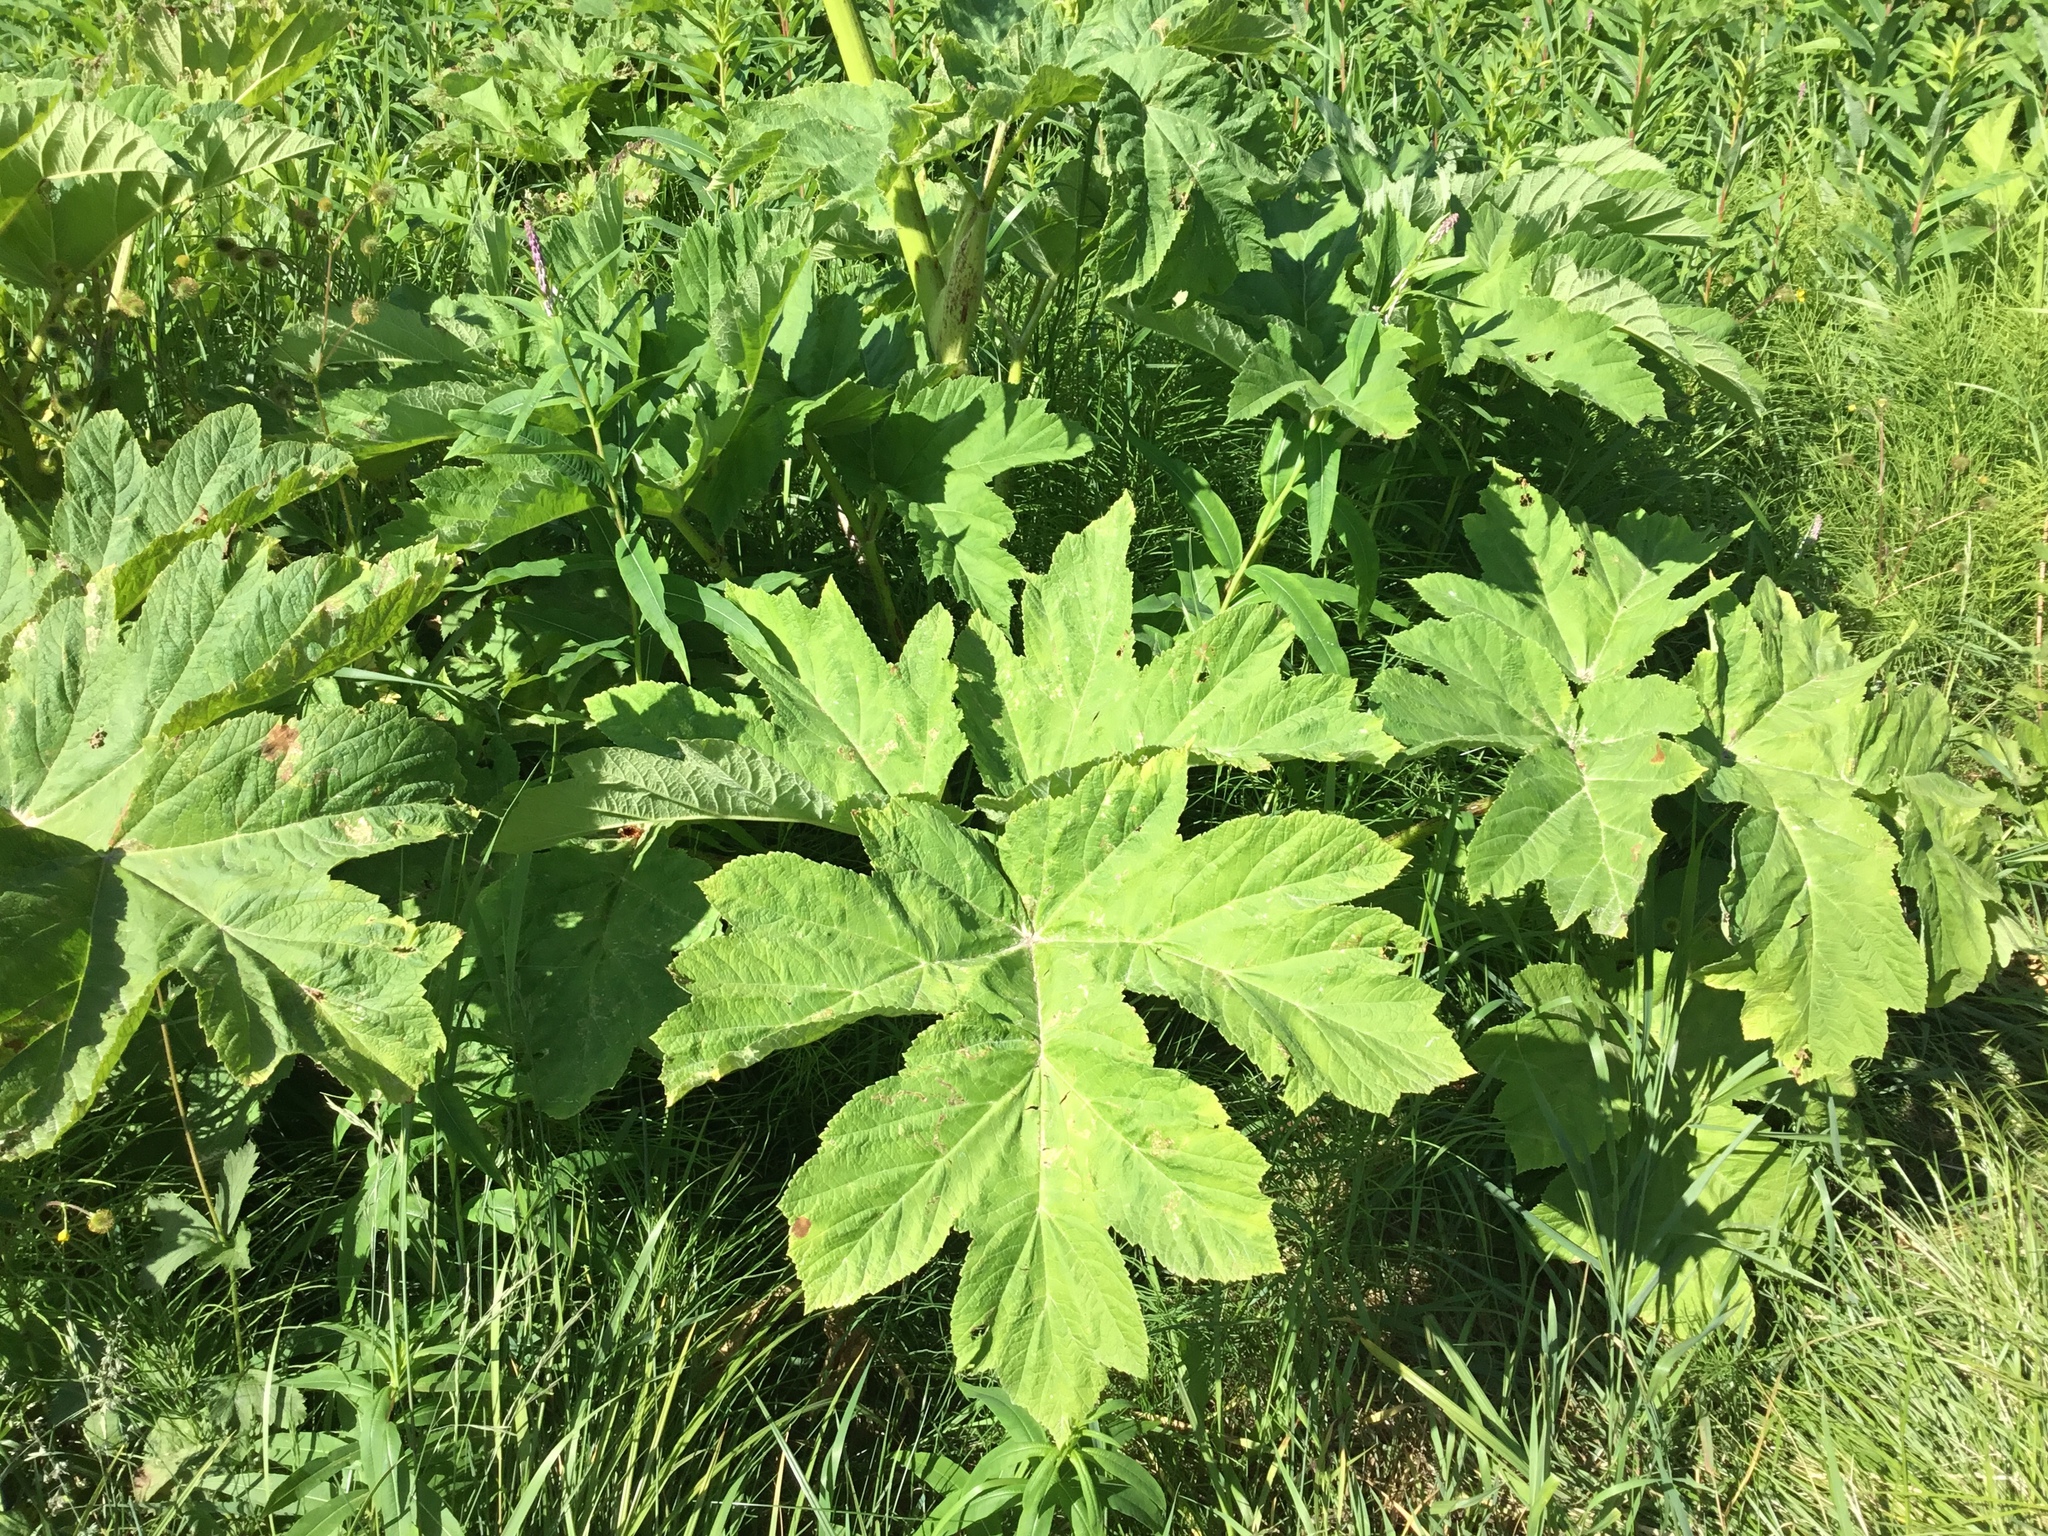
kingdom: Plantae
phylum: Tracheophyta
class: Magnoliopsida
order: Apiales
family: Apiaceae
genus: Heracleum
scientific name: Heracleum maximum
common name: American cow parsnip
